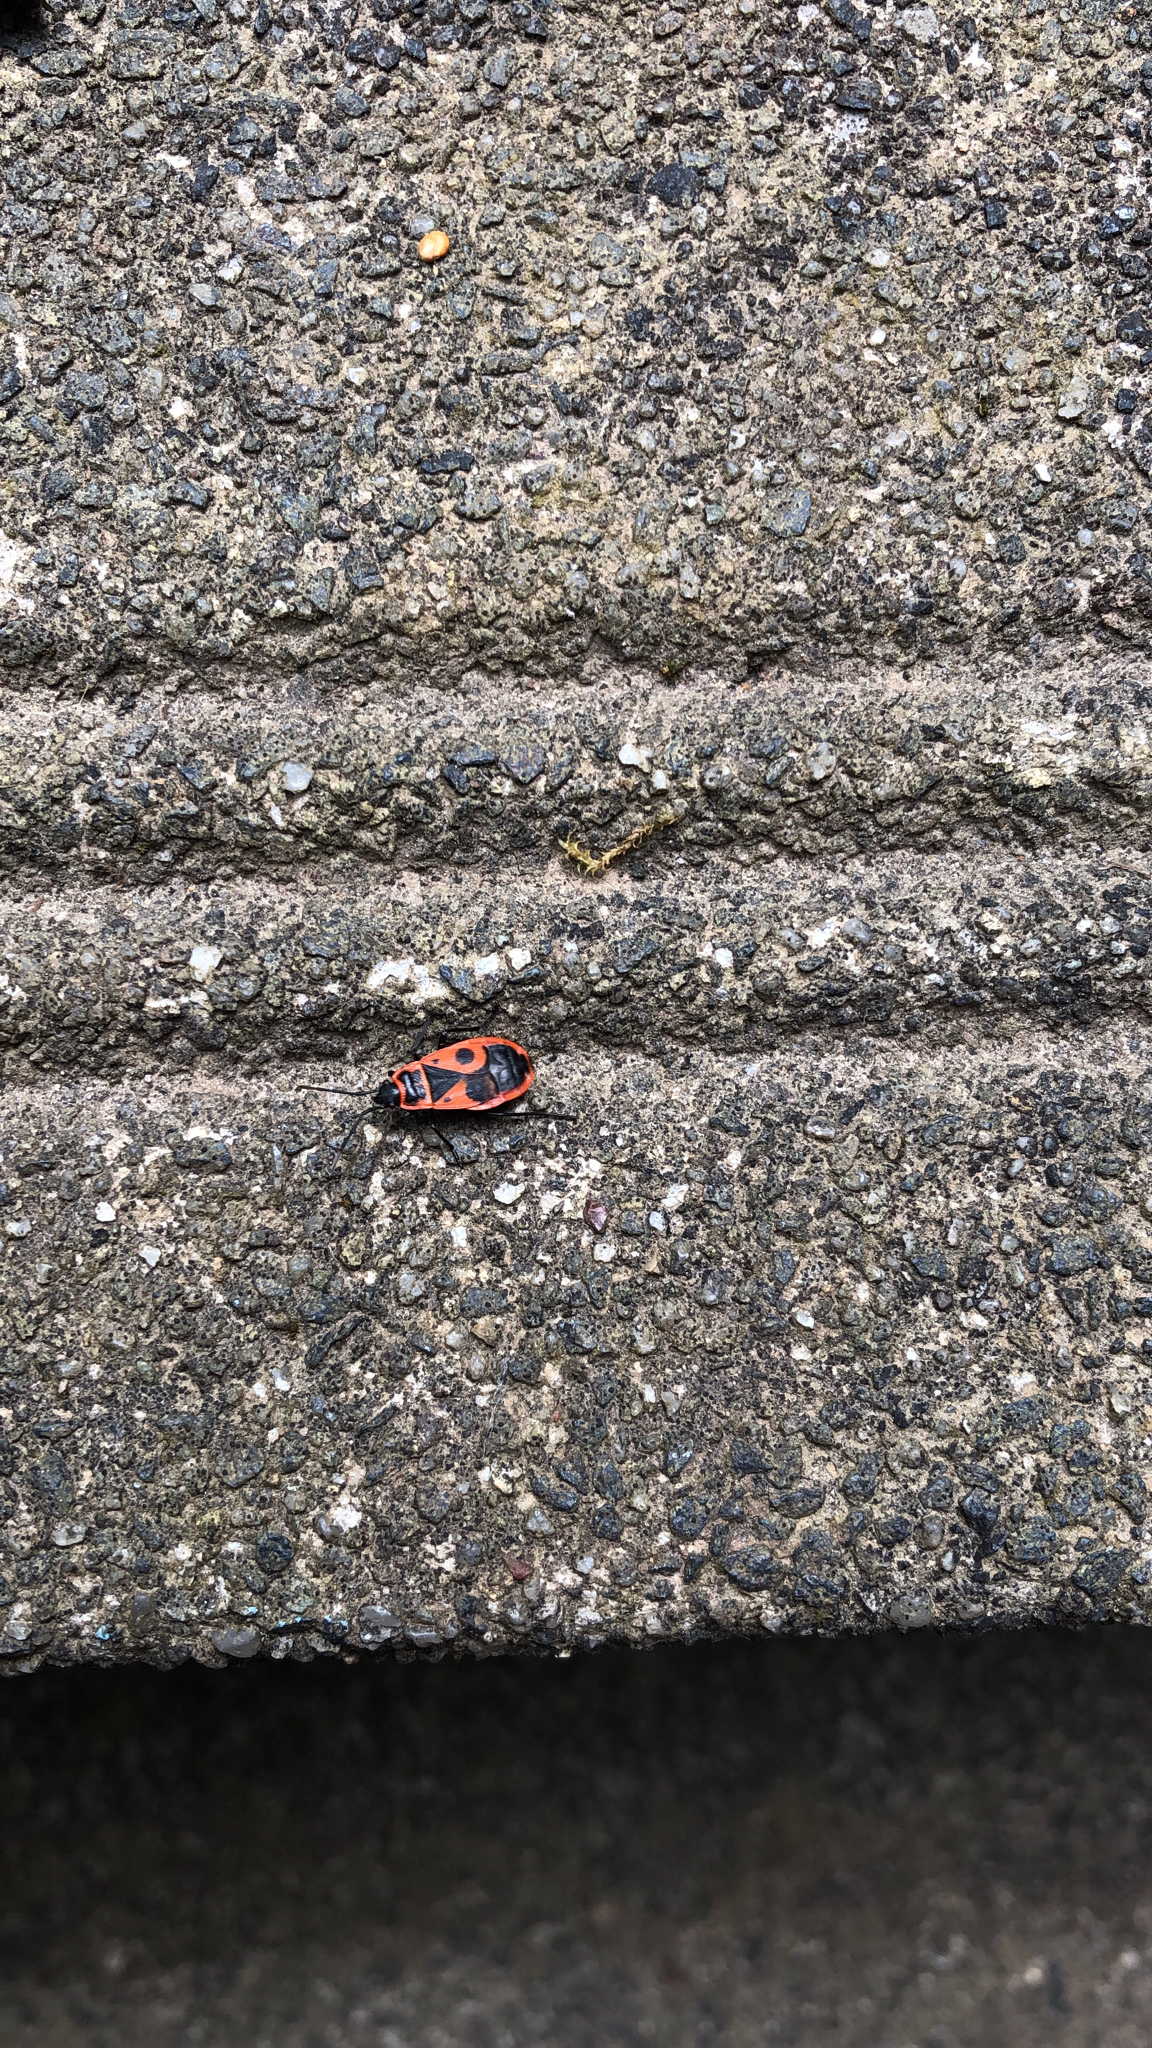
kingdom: Animalia
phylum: Arthropoda
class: Insecta
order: Hemiptera
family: Pyrrhocoridae
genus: Pyrrhocoris
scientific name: Pyrrhocoris apterus
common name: Firebug
